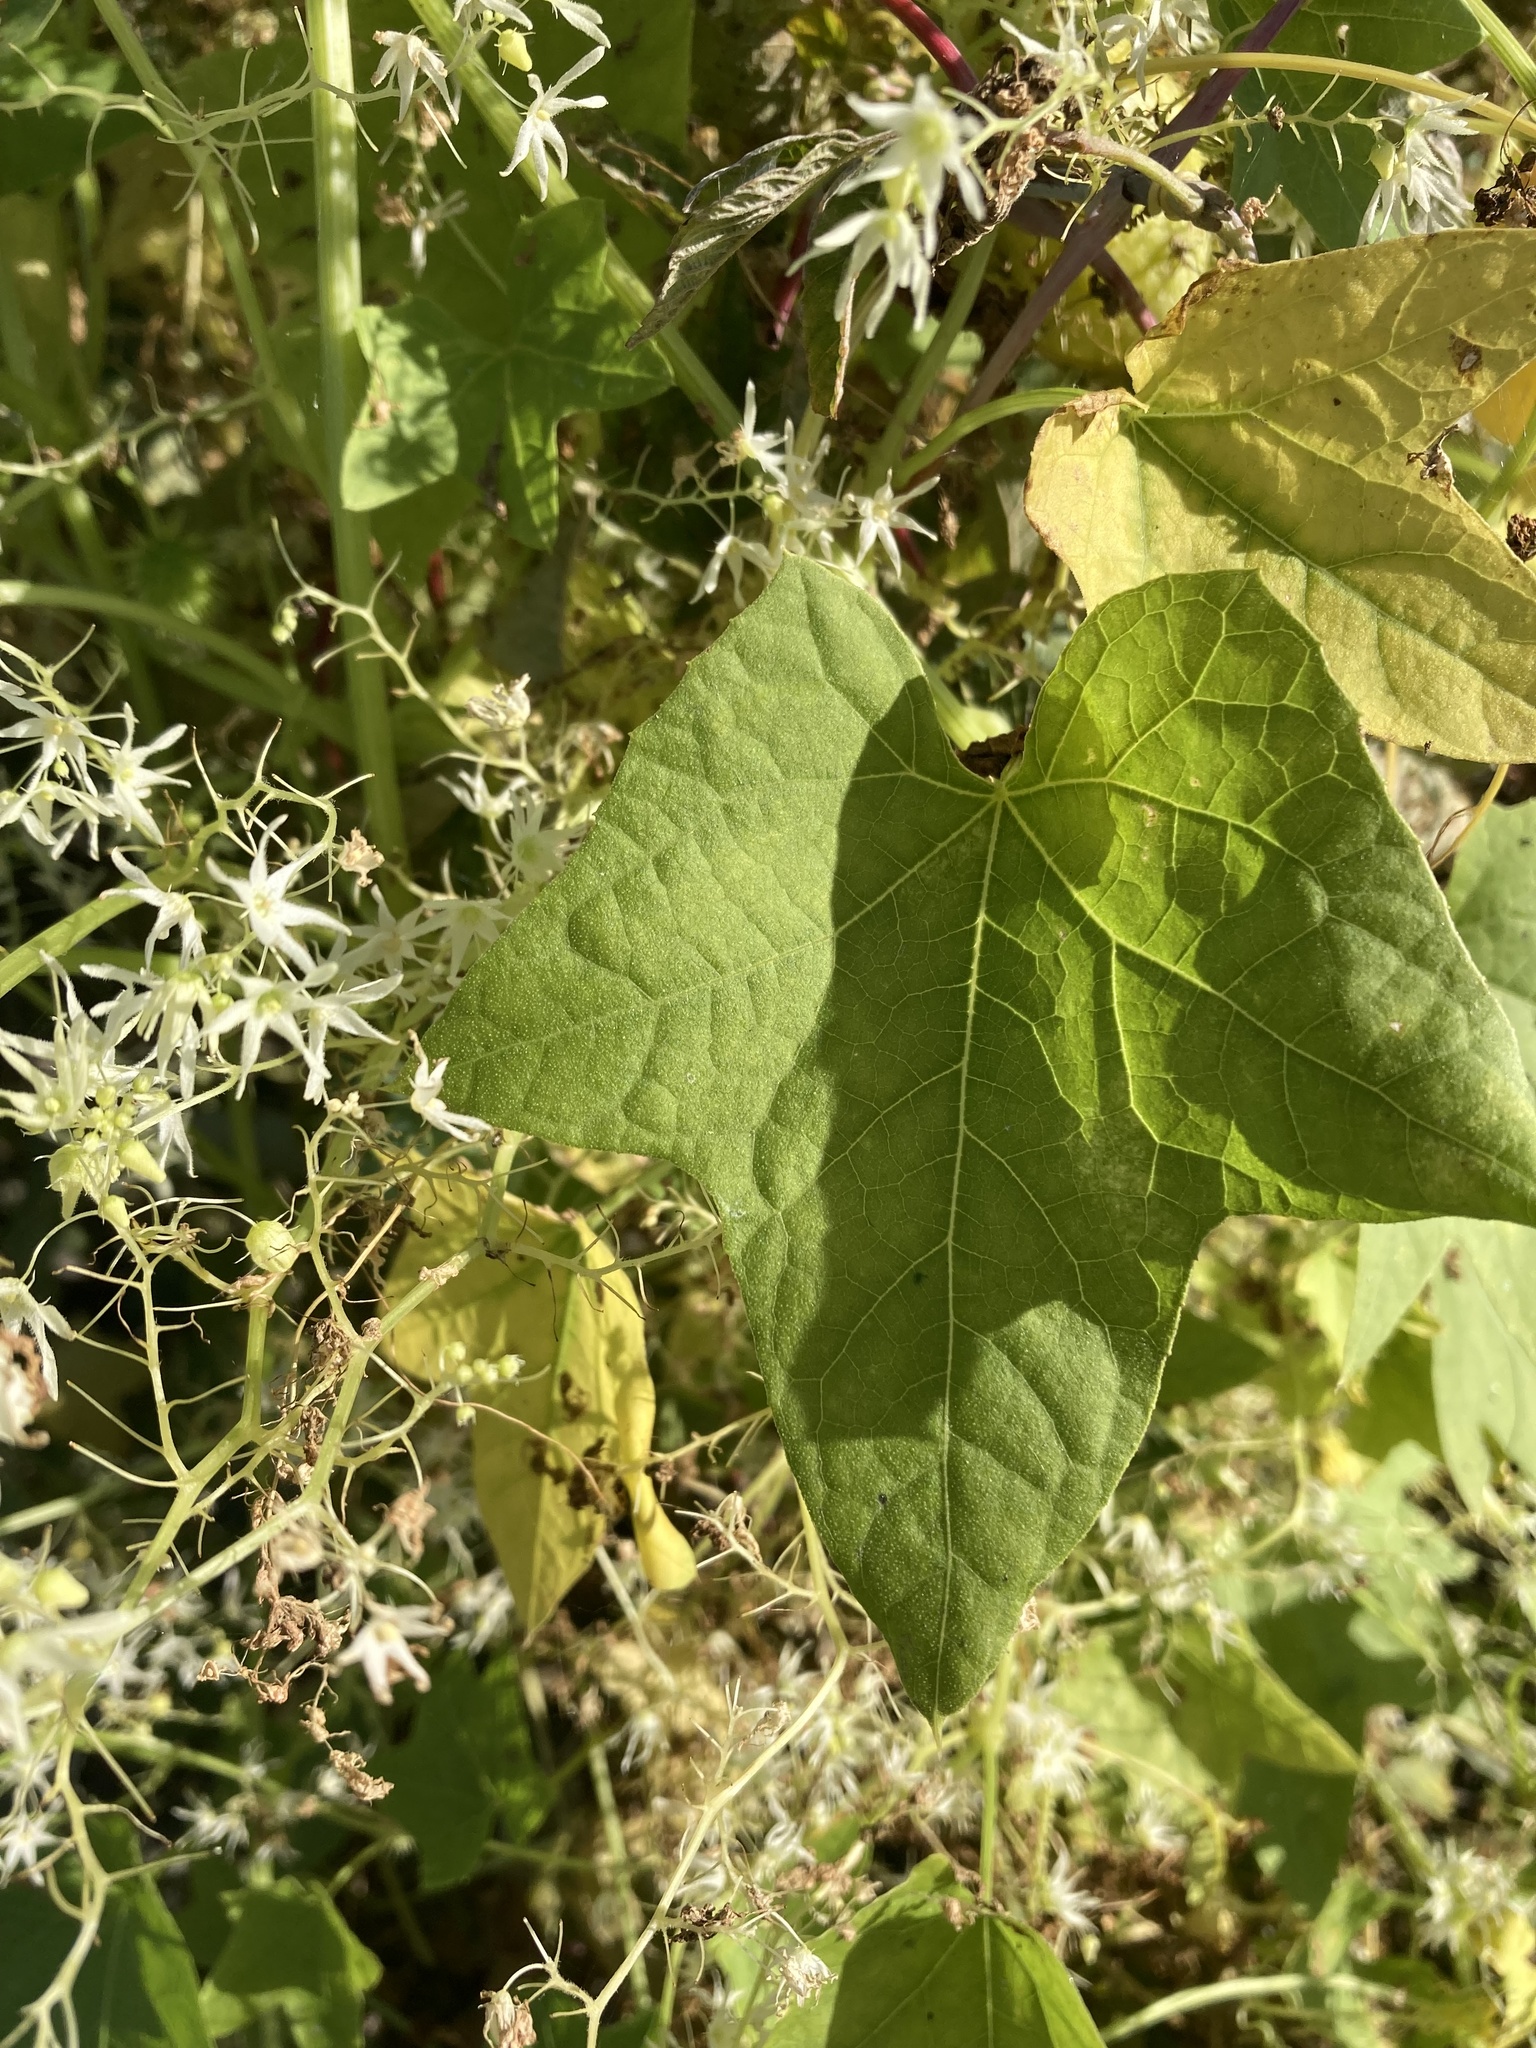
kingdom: Plantae
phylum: Tracheophyta
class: Magnoliopsida
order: Cucurbitales
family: Cucurbitaceae
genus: Echinocystis
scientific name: Echinocystis lobata
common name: Wild cucumber
